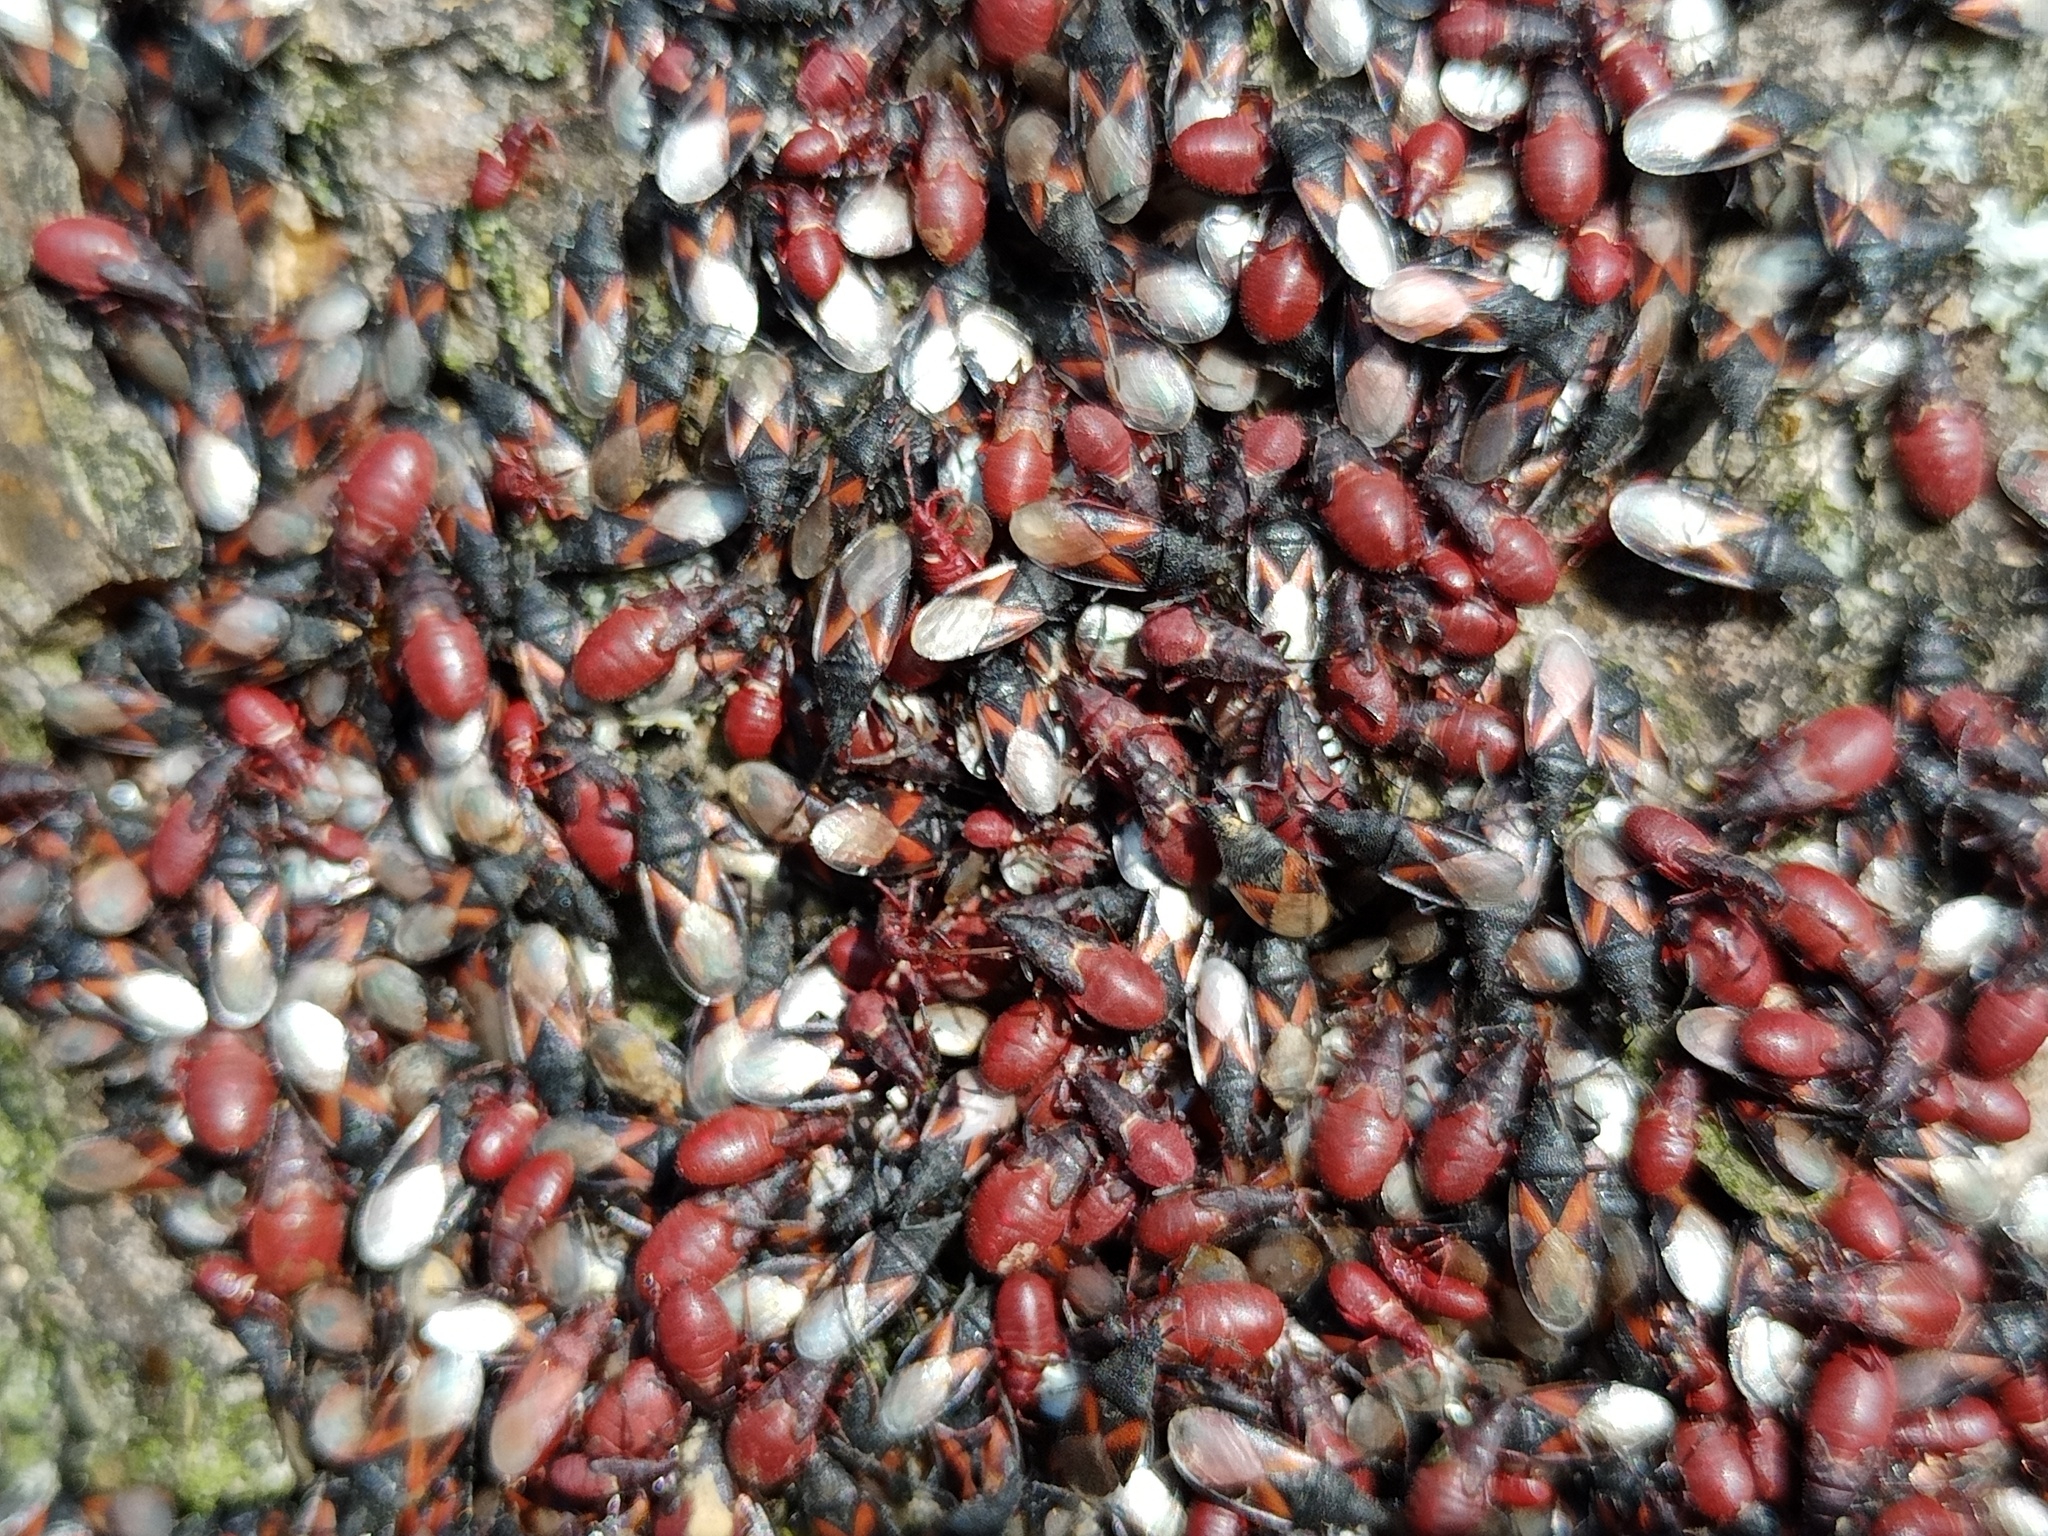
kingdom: Animalia
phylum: Arthropoda
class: Insecta
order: Hemiptera
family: Oxycarenidae
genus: Oxycarenus
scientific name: Oxycarenus lavaterae
